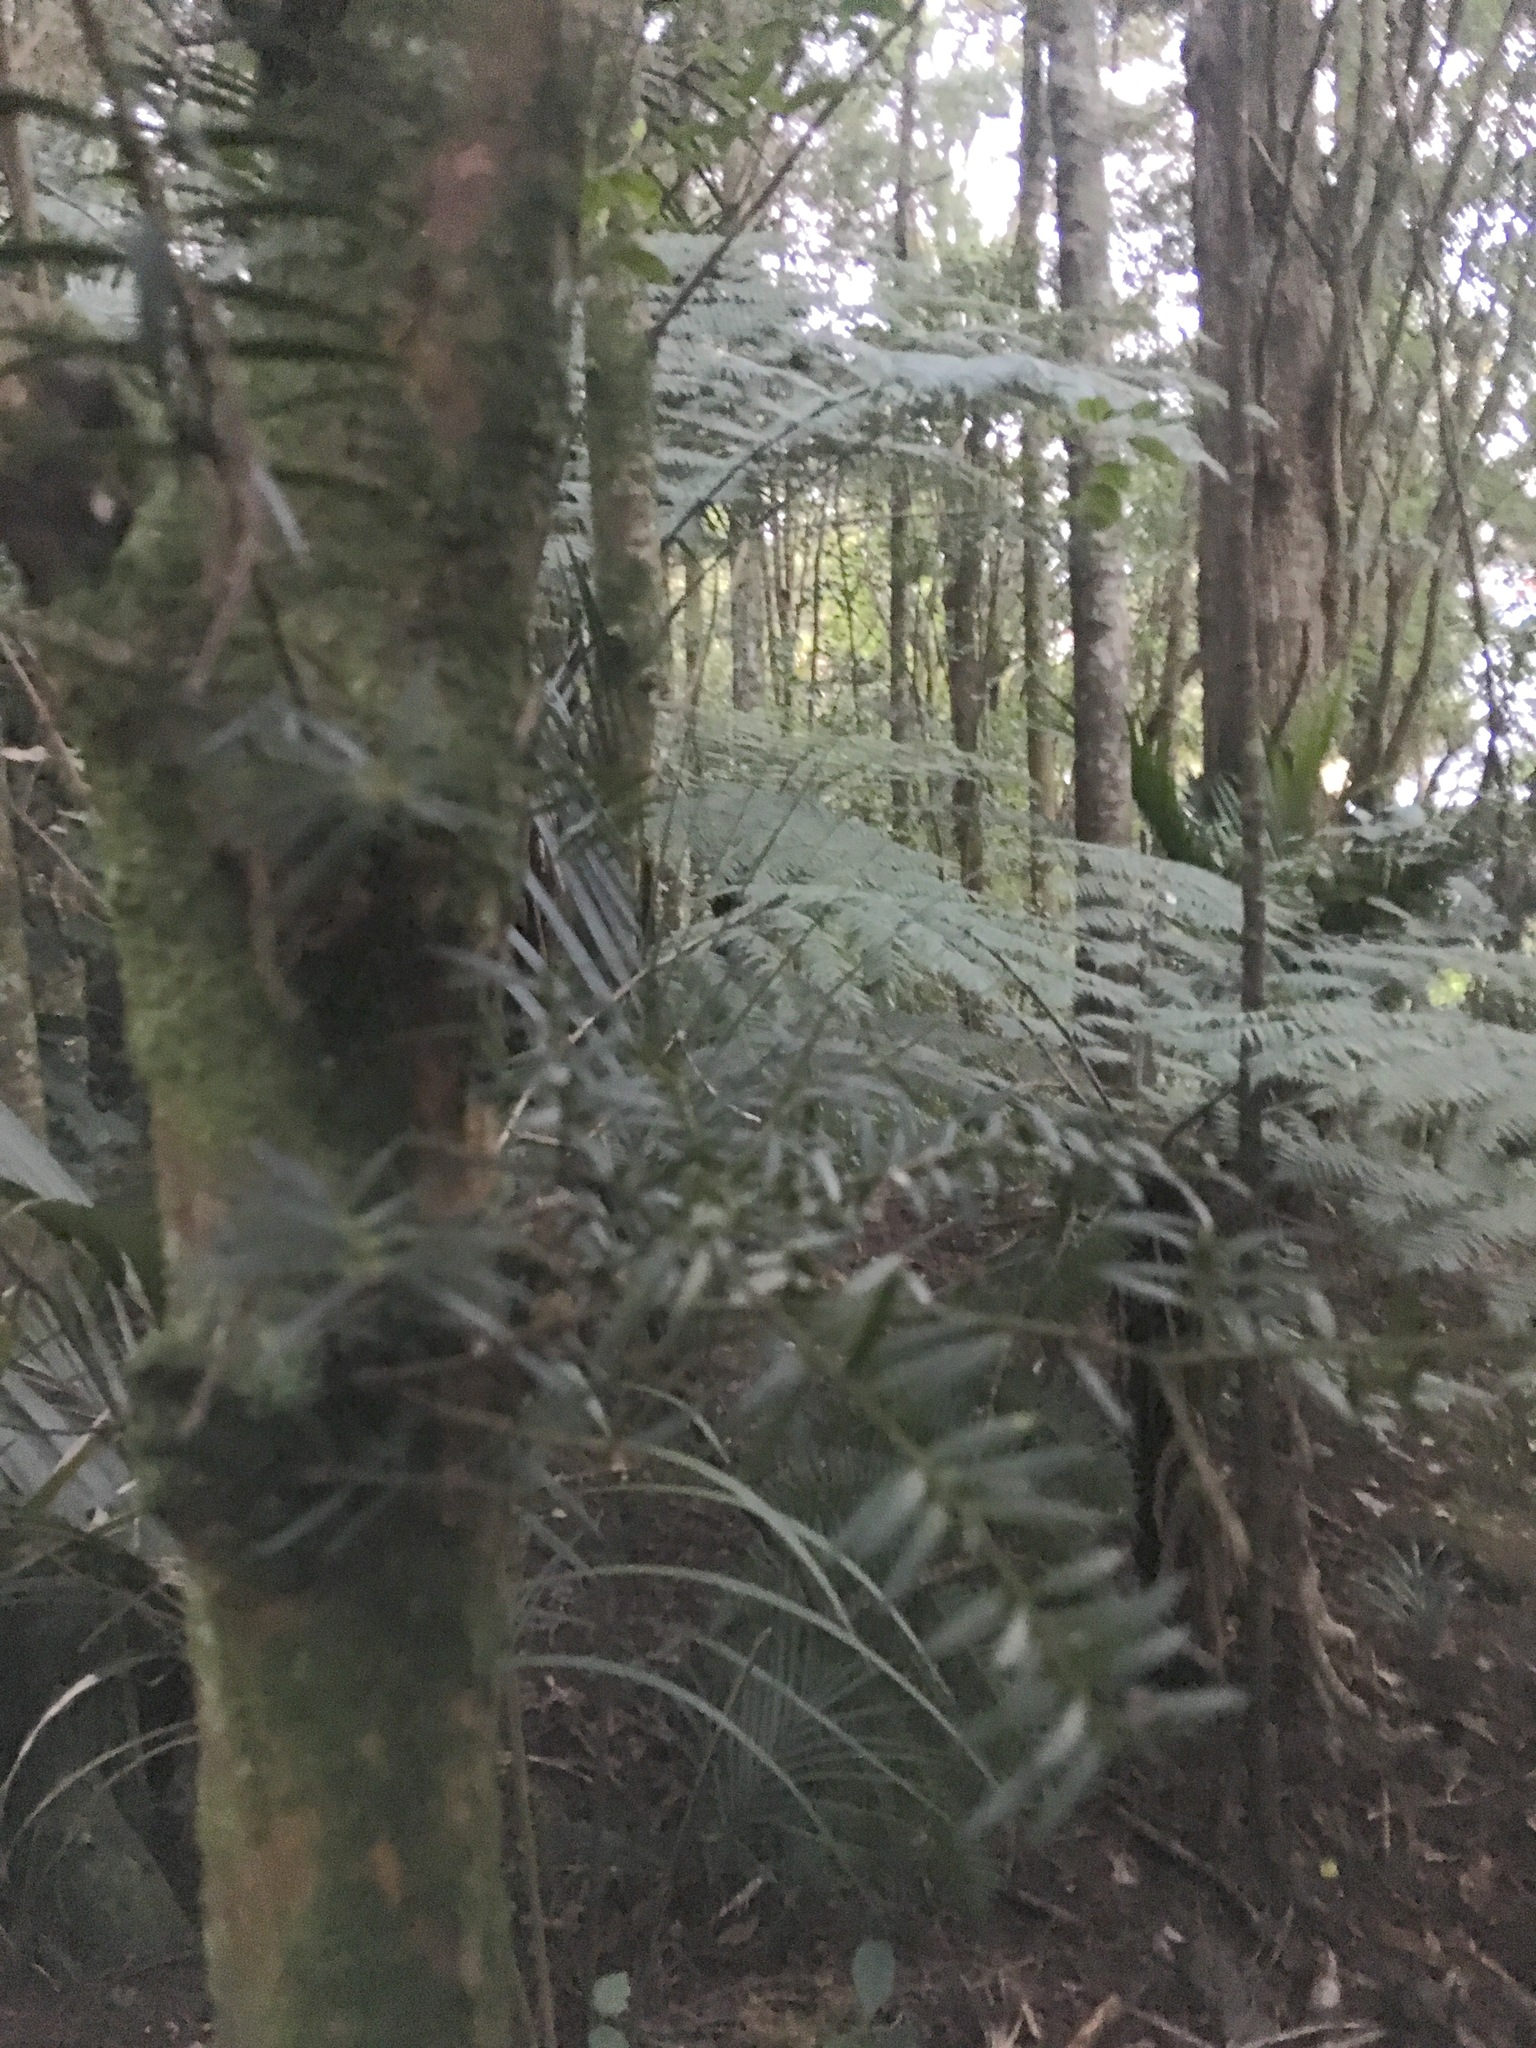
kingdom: Plantae
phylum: Tracheophyta
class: Pinopsida
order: Pinales
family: Podocarpaceae
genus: Podocarpus
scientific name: Podocarpus totara
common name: Totara
